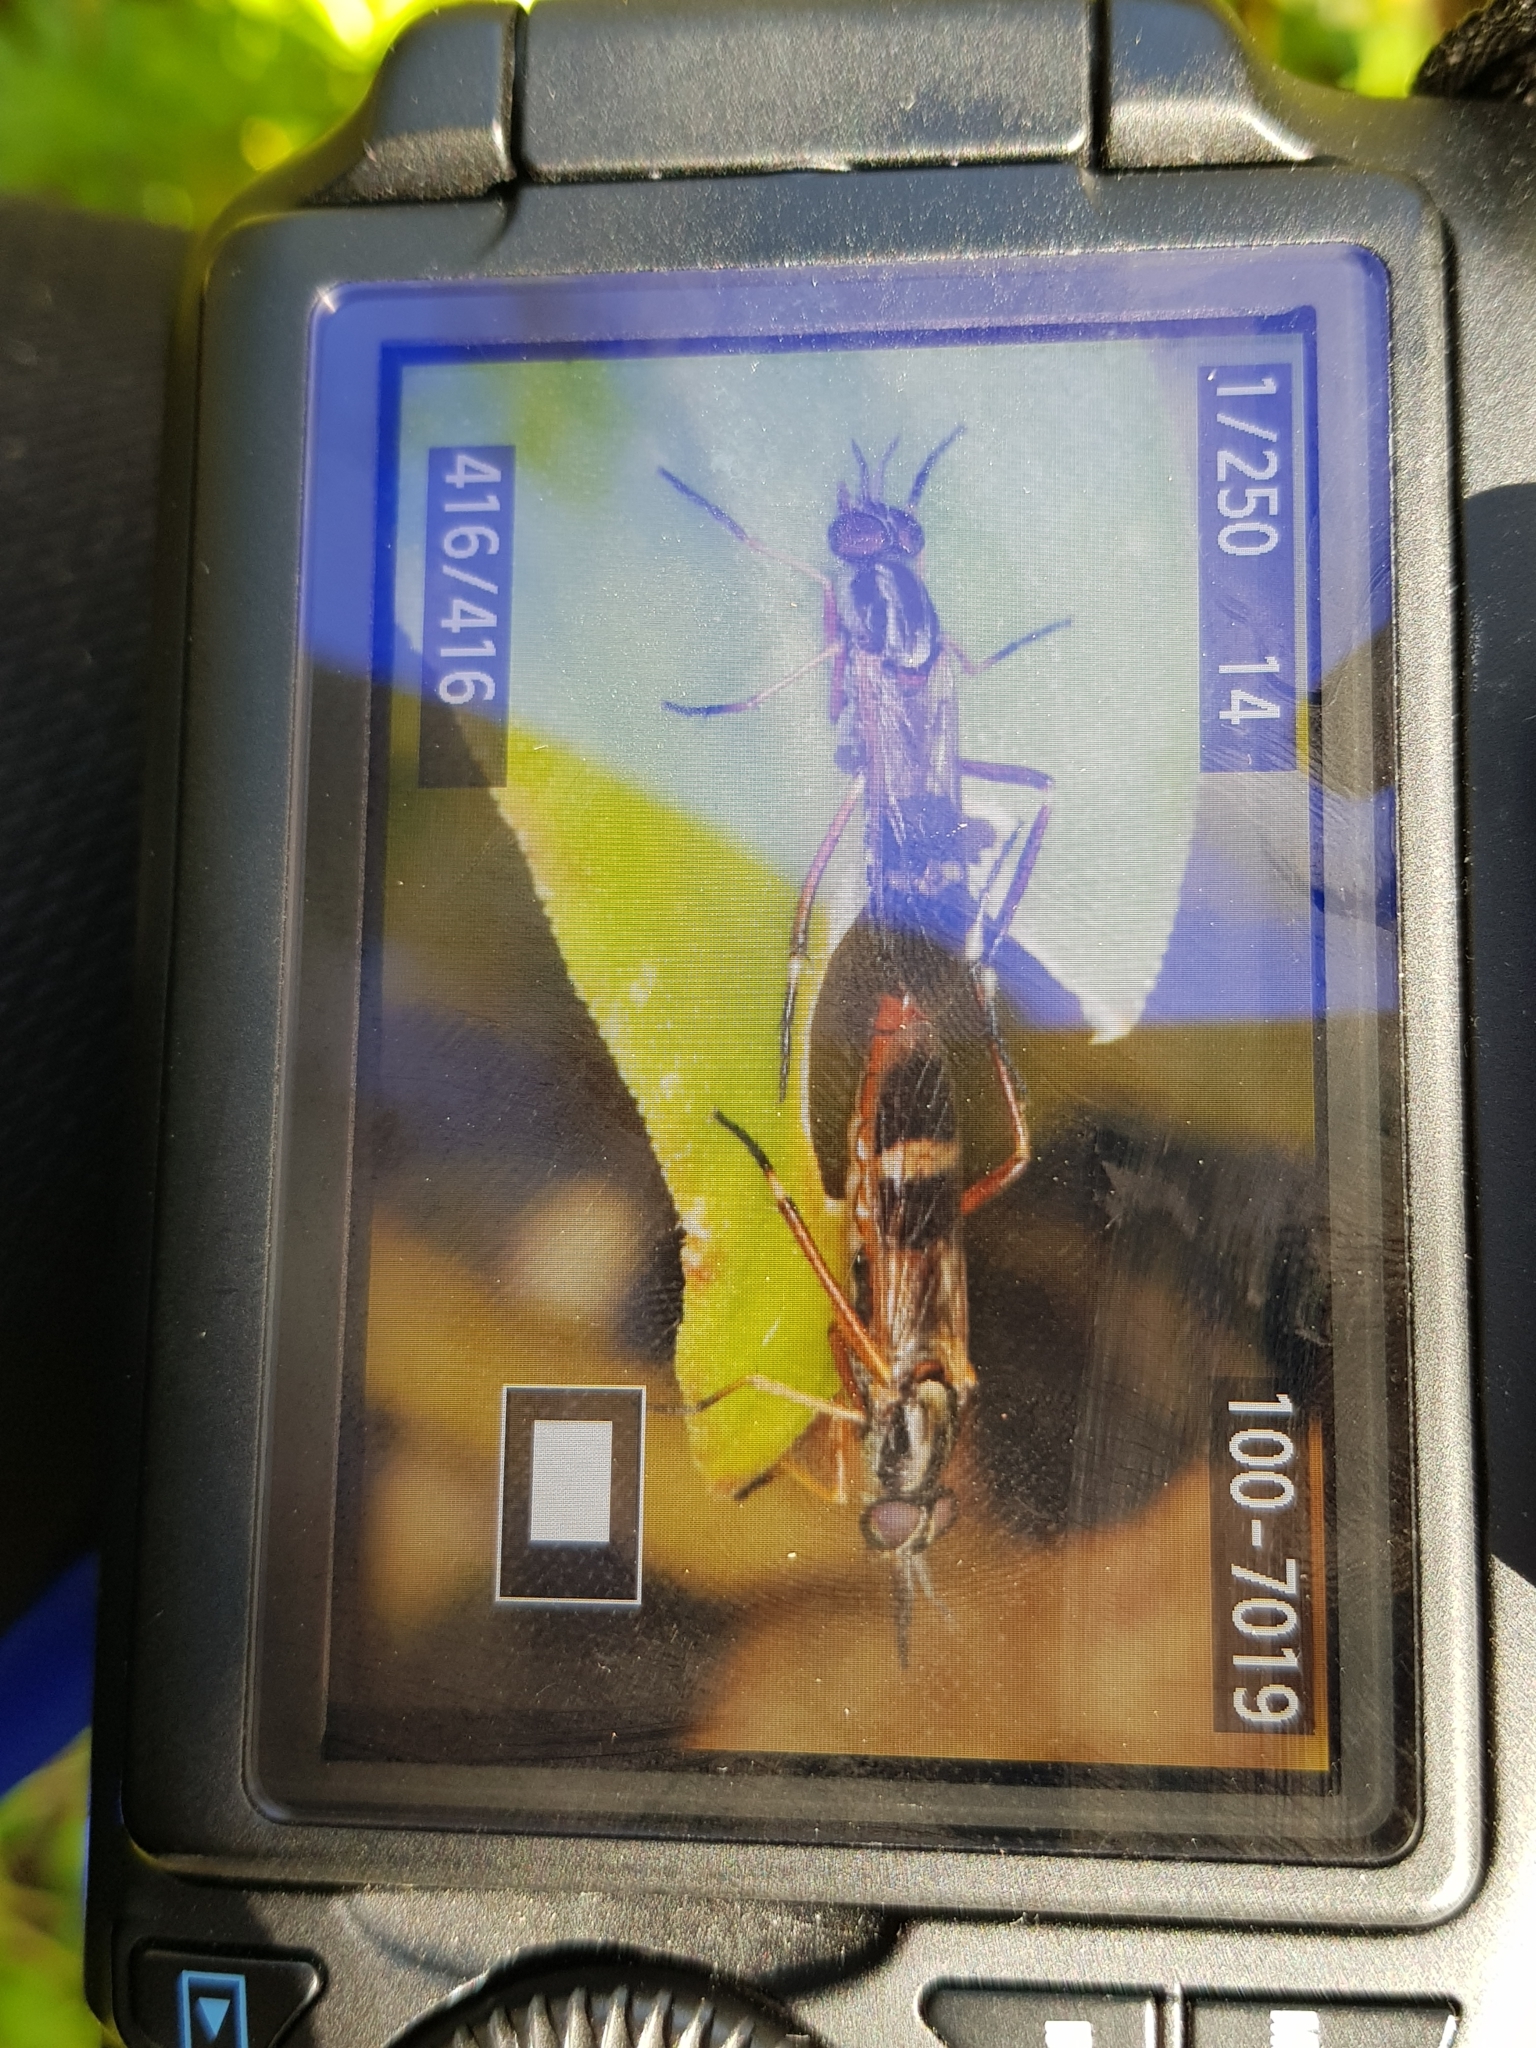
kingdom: Animalia
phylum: Arthropoda
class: Insecta
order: Diptera
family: Therevidae
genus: Evansomyia
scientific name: Evansomyia
